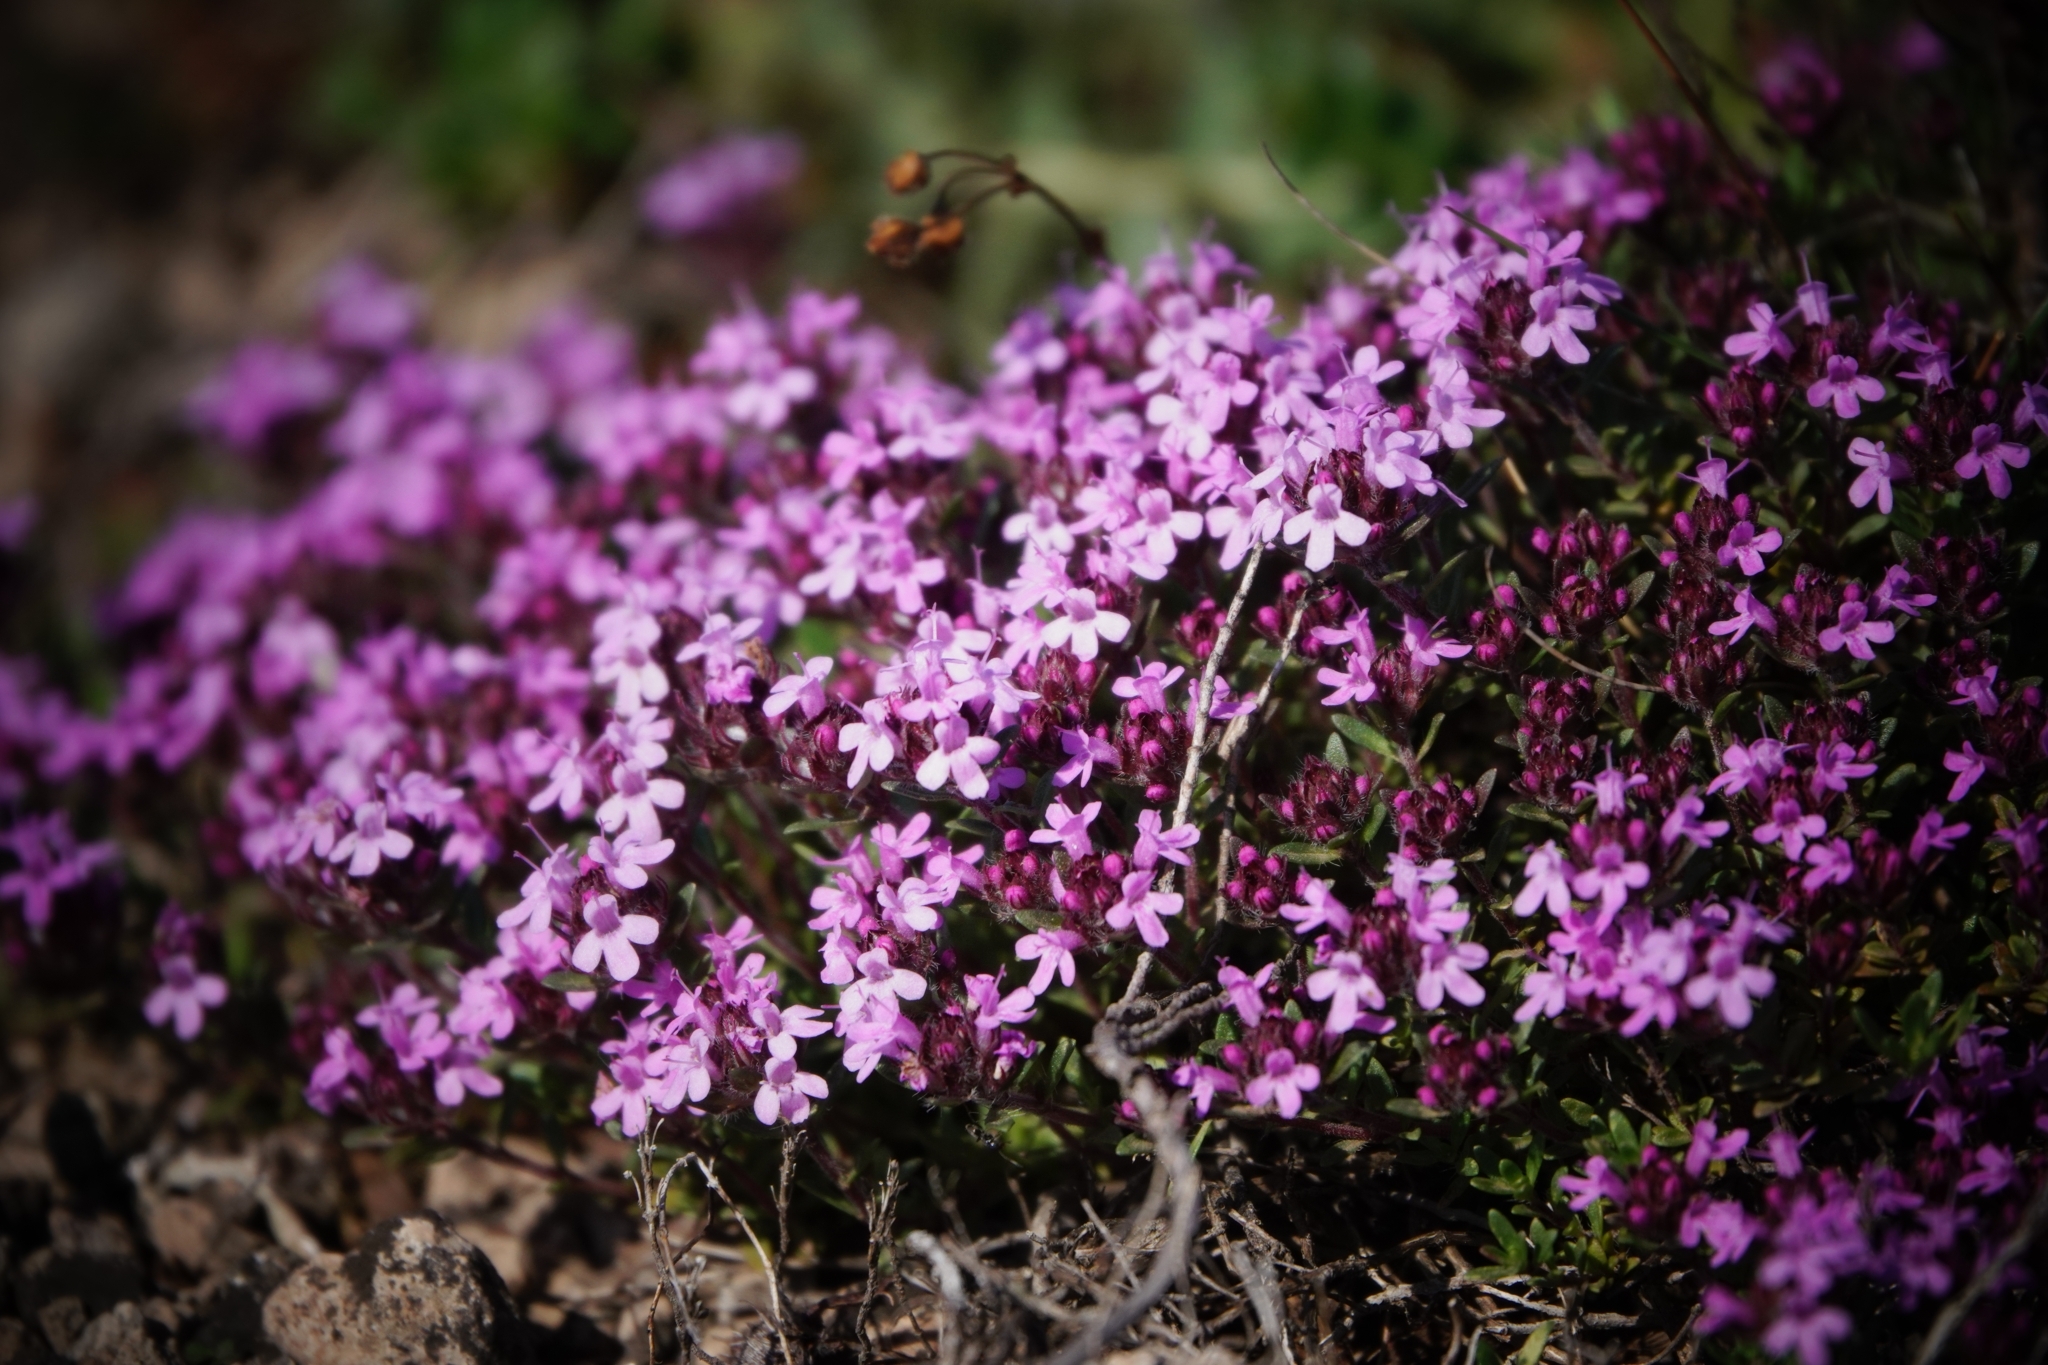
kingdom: Plantae
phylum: Tracheophyta
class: Magnoliopsida
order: Lamiales
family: Lamiaceae
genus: Thymus
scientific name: Thymus serpyllum
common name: Breckland thyme
